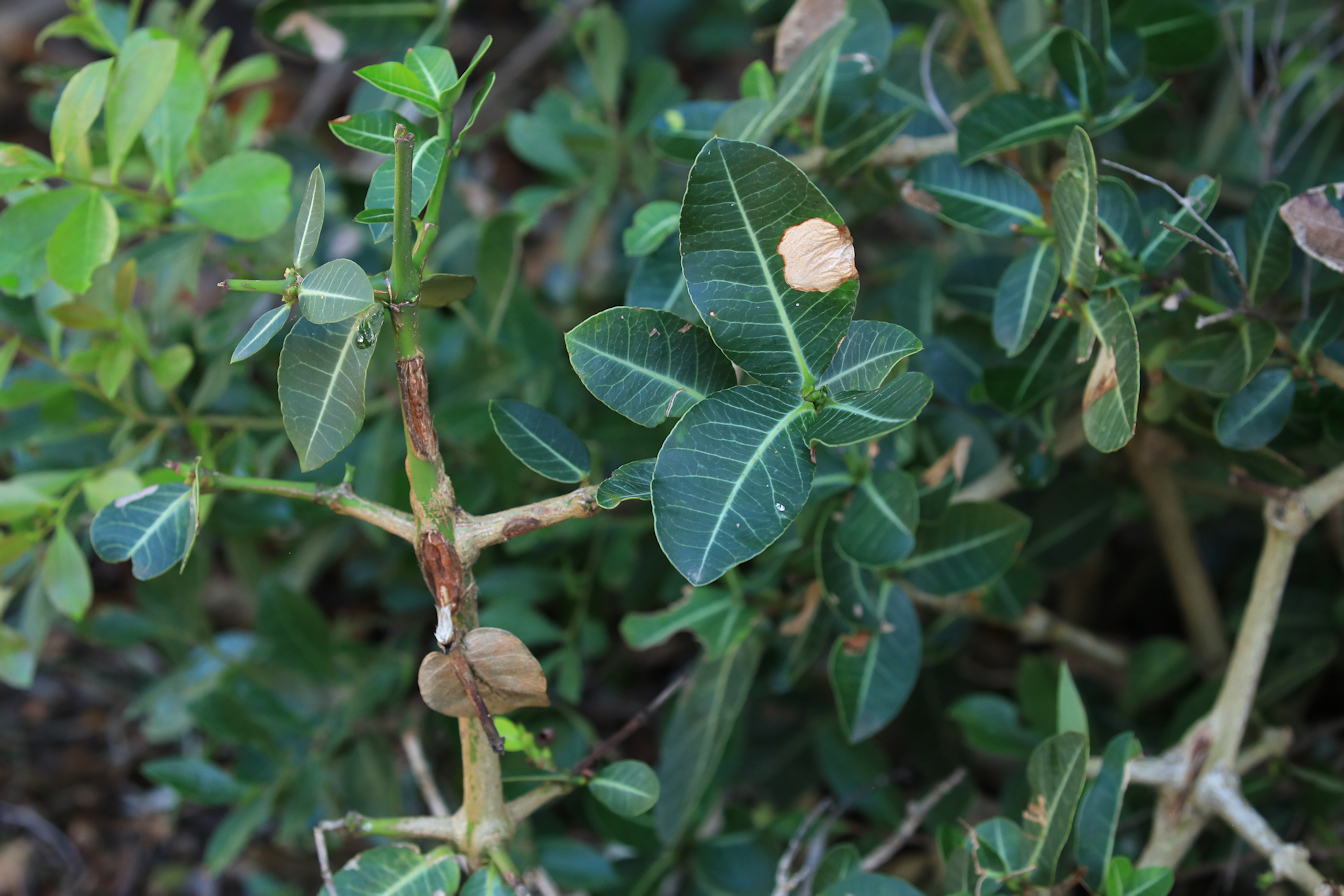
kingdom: Plantae
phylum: Tracheophyta
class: Magnoliopsida
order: Malpighiales
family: Clusiaceae
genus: Garcinia
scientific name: Garcinia livingstonei
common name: African mangosteen
